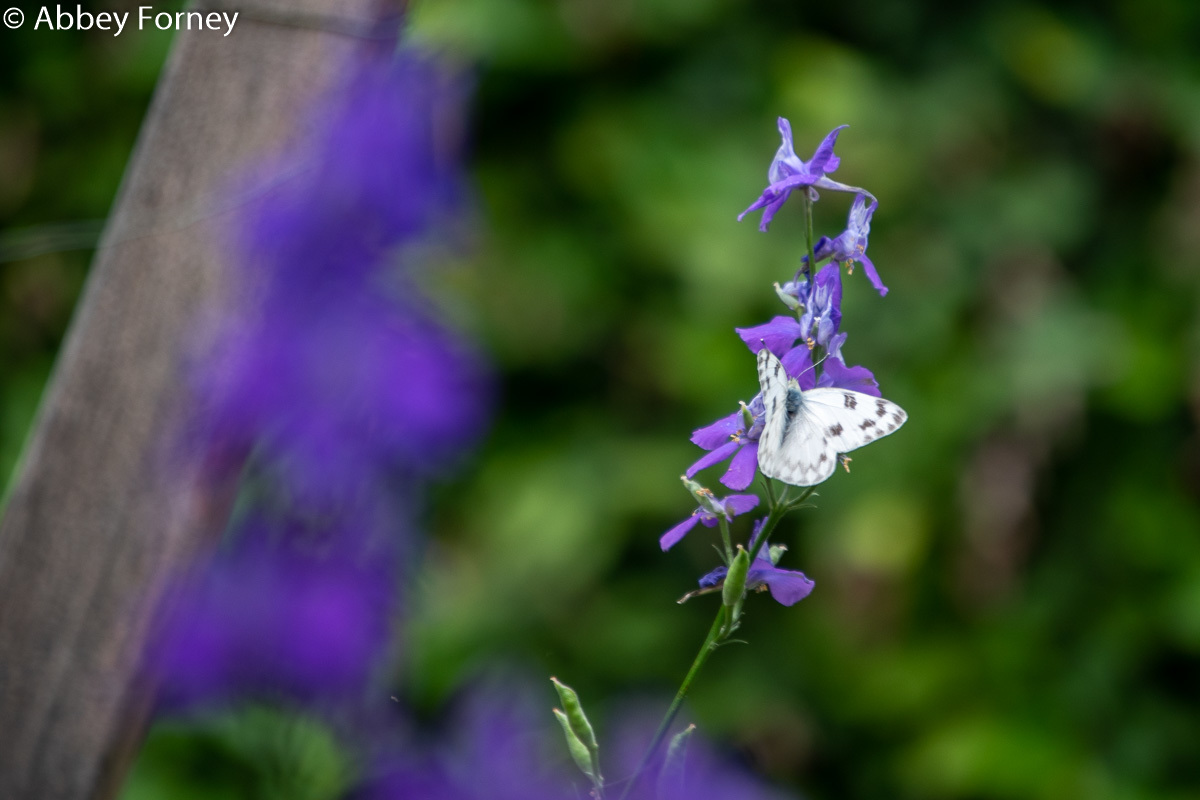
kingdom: Animalia
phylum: Arthropoda
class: Insecta
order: Lepidoptera
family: Pieridae
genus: Pontia
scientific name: Pontia protodice
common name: Checkered white
